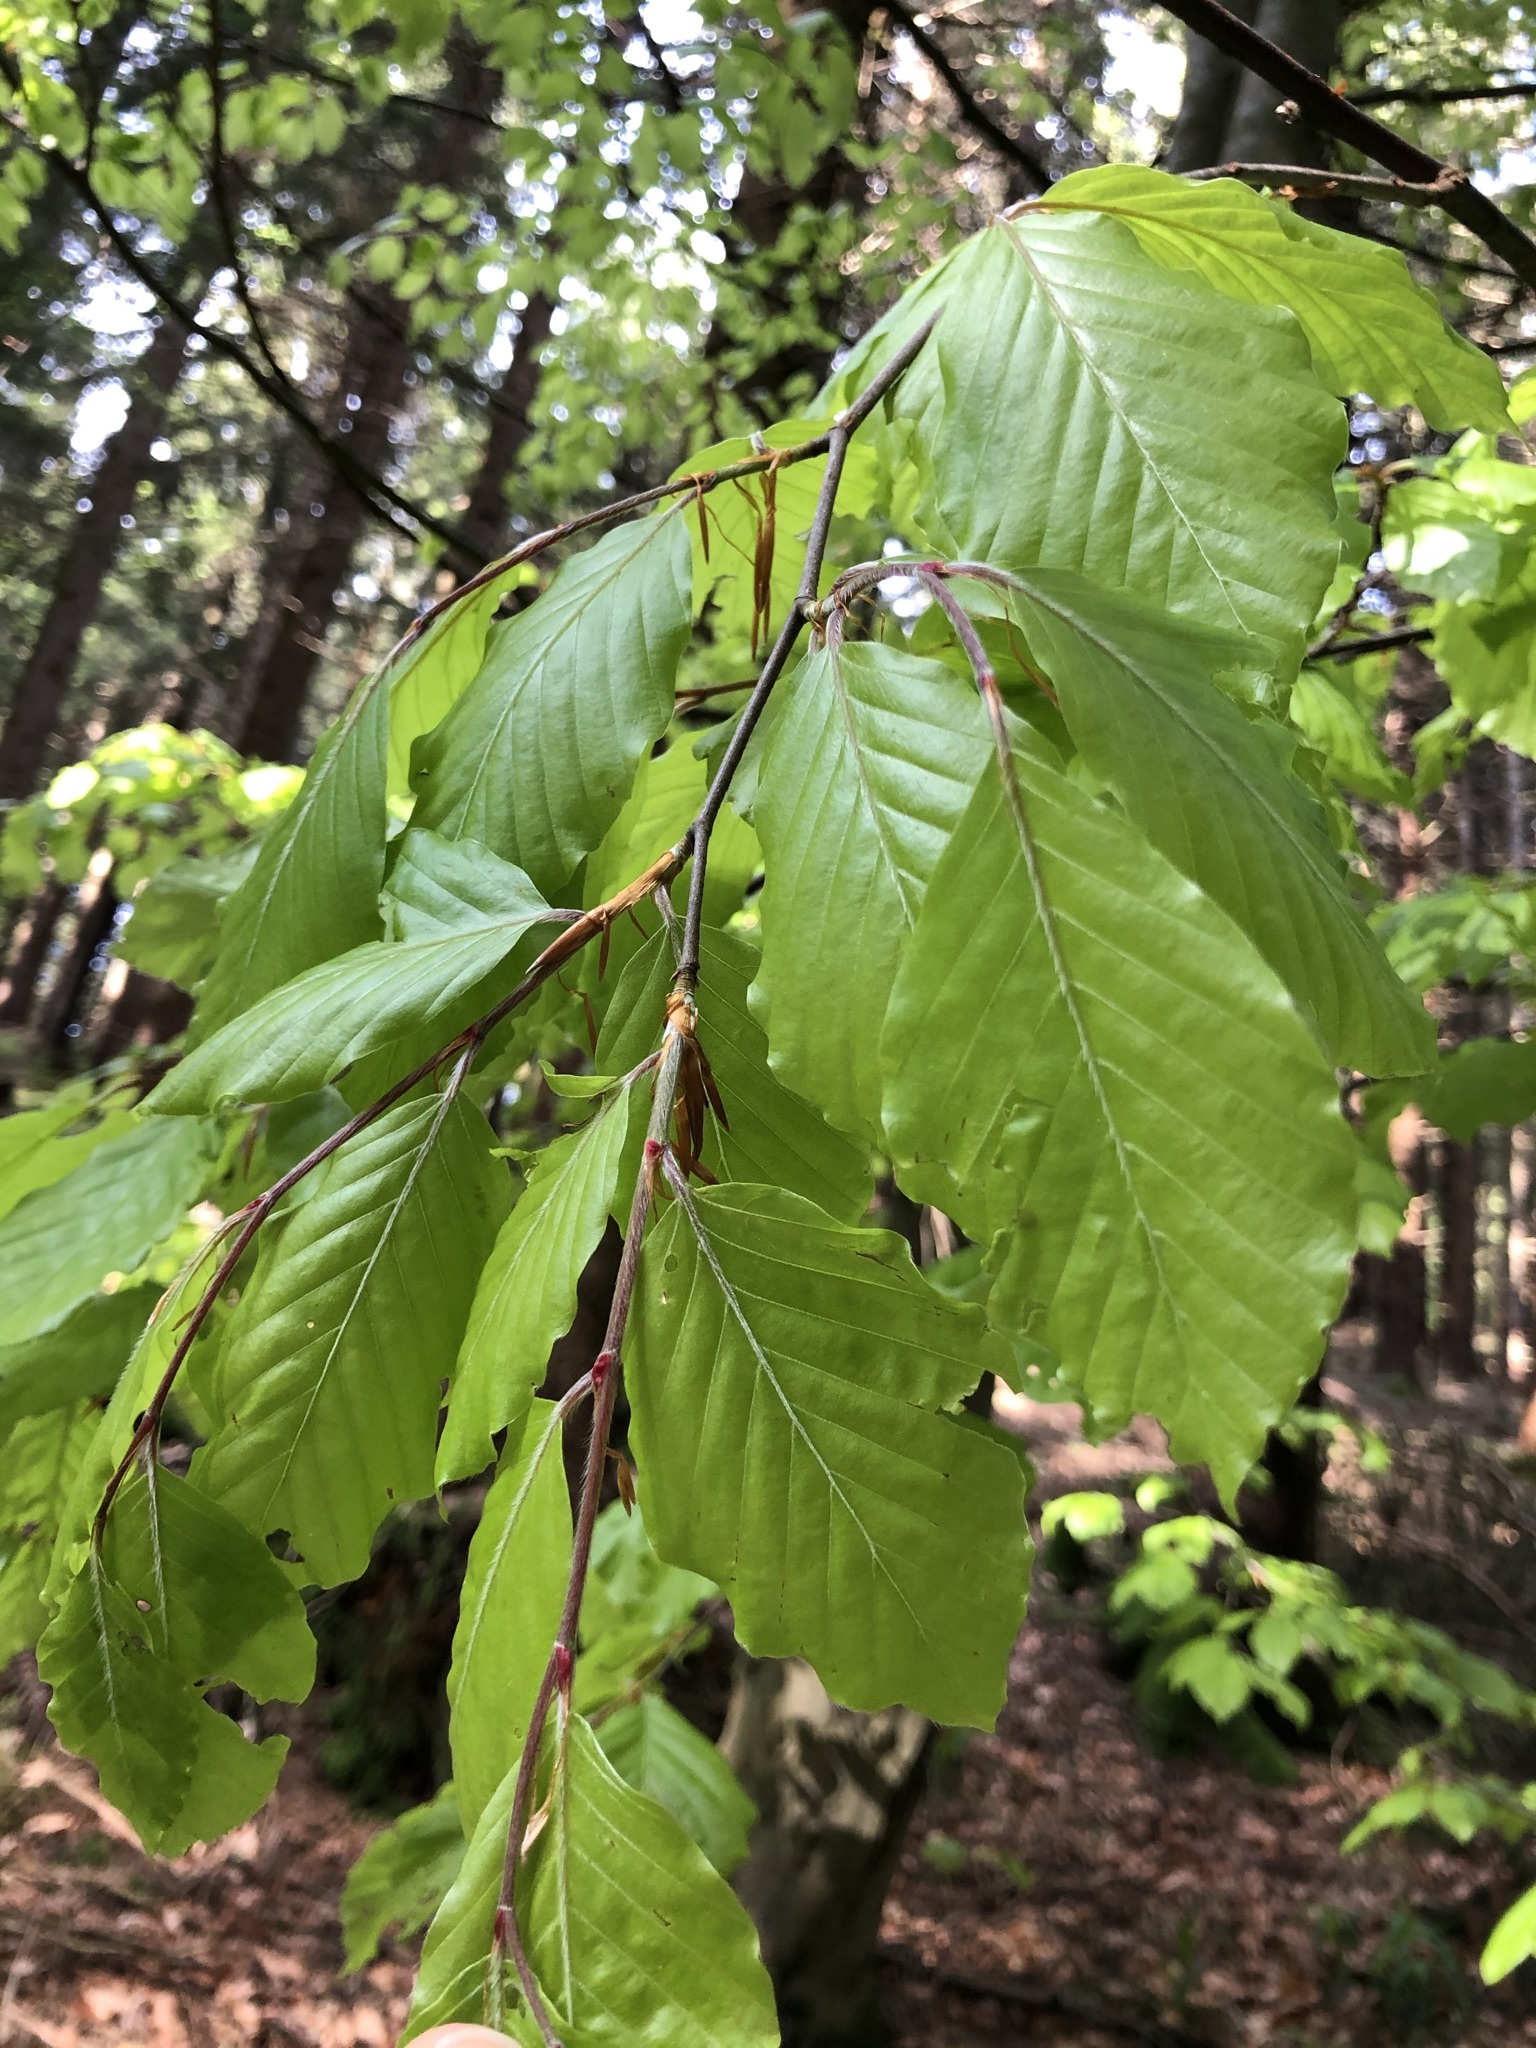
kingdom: Plantae
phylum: Tracheophyta
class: Magnoliopsida
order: Fagales
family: Fagaceae
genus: Fagus
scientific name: Fagus sylvatica
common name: Beech
